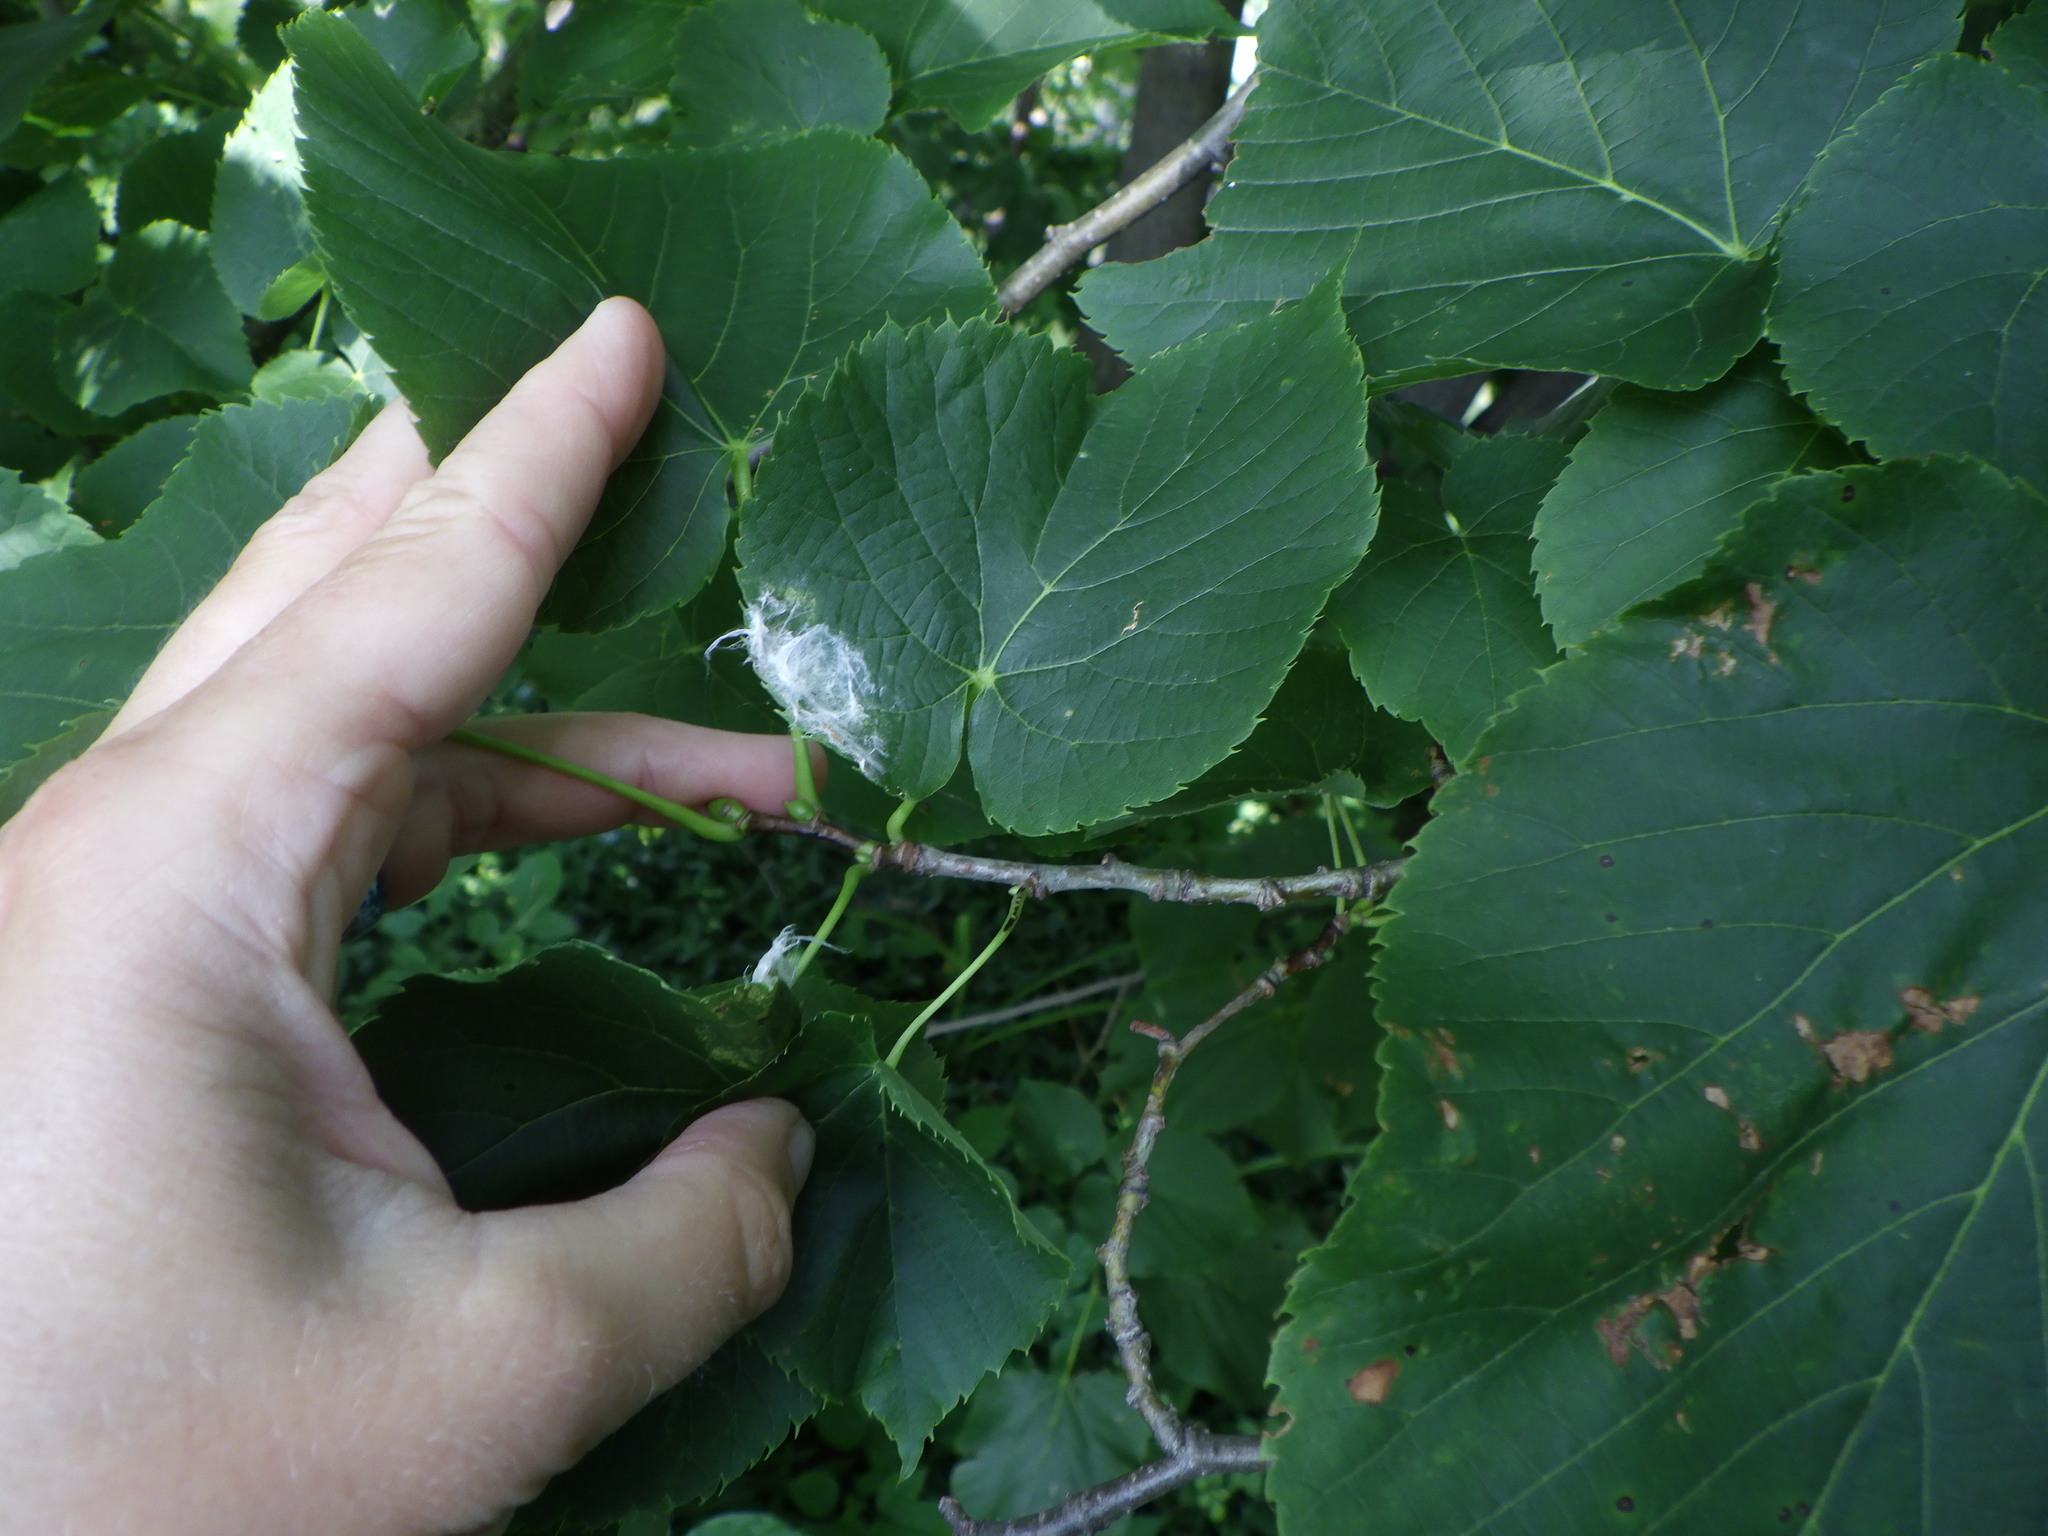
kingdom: Plantae
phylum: Tracheophyta
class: Magnoliopsida
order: Malvales
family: Malvaceae
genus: Tilia
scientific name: Tilia americana
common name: Basswood
